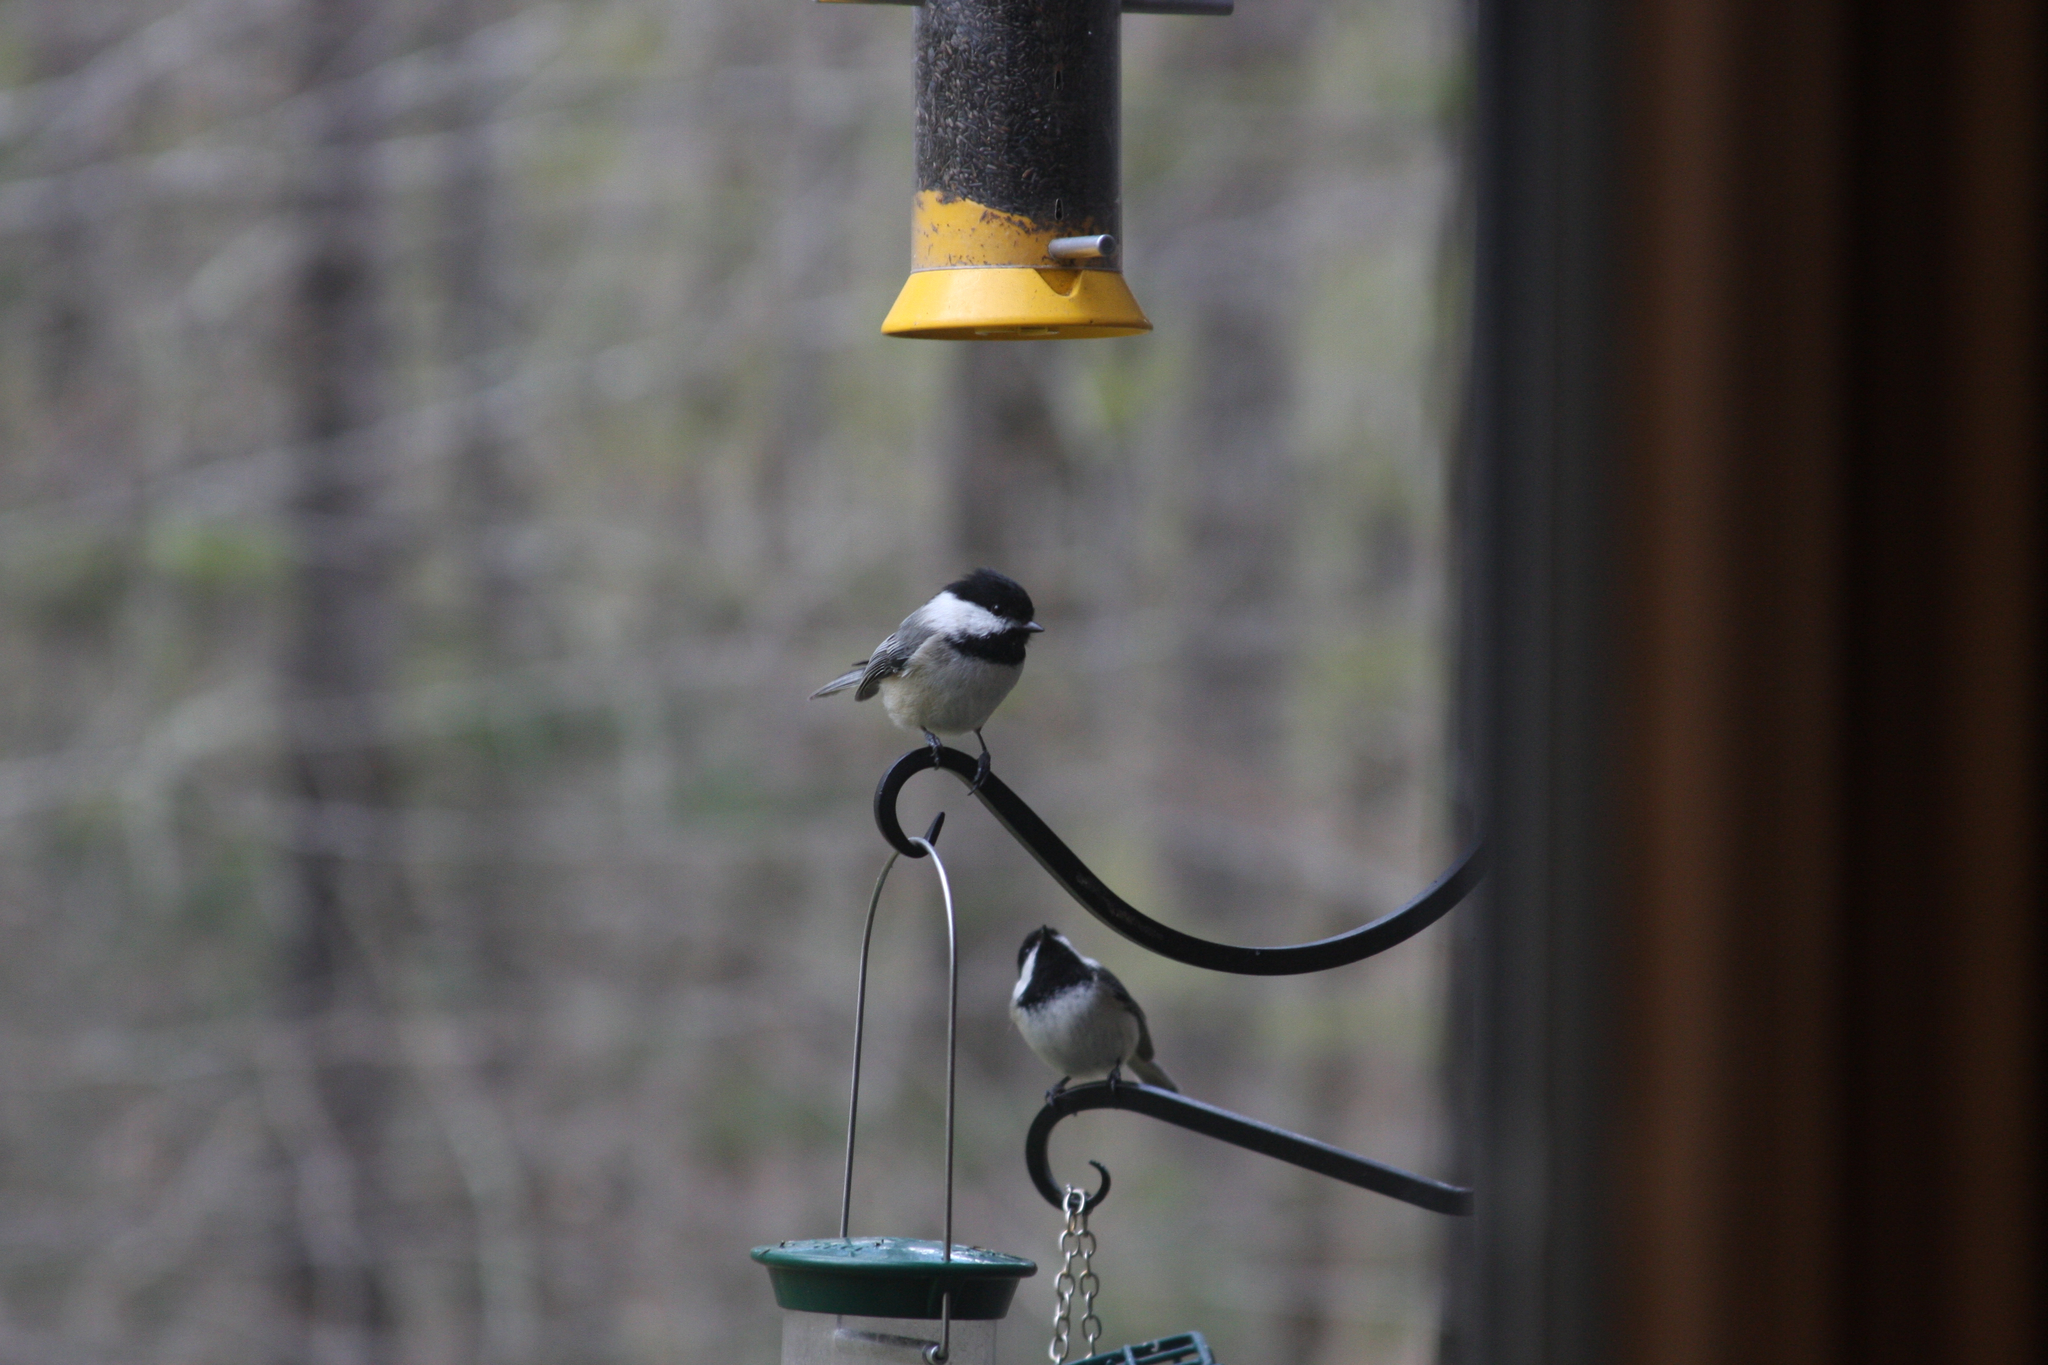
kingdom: Animalia
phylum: Chordata
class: Aves
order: Passeriformes
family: Paridae
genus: Poecile
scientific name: Poecile atricapillus
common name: Black-capped chickadee
